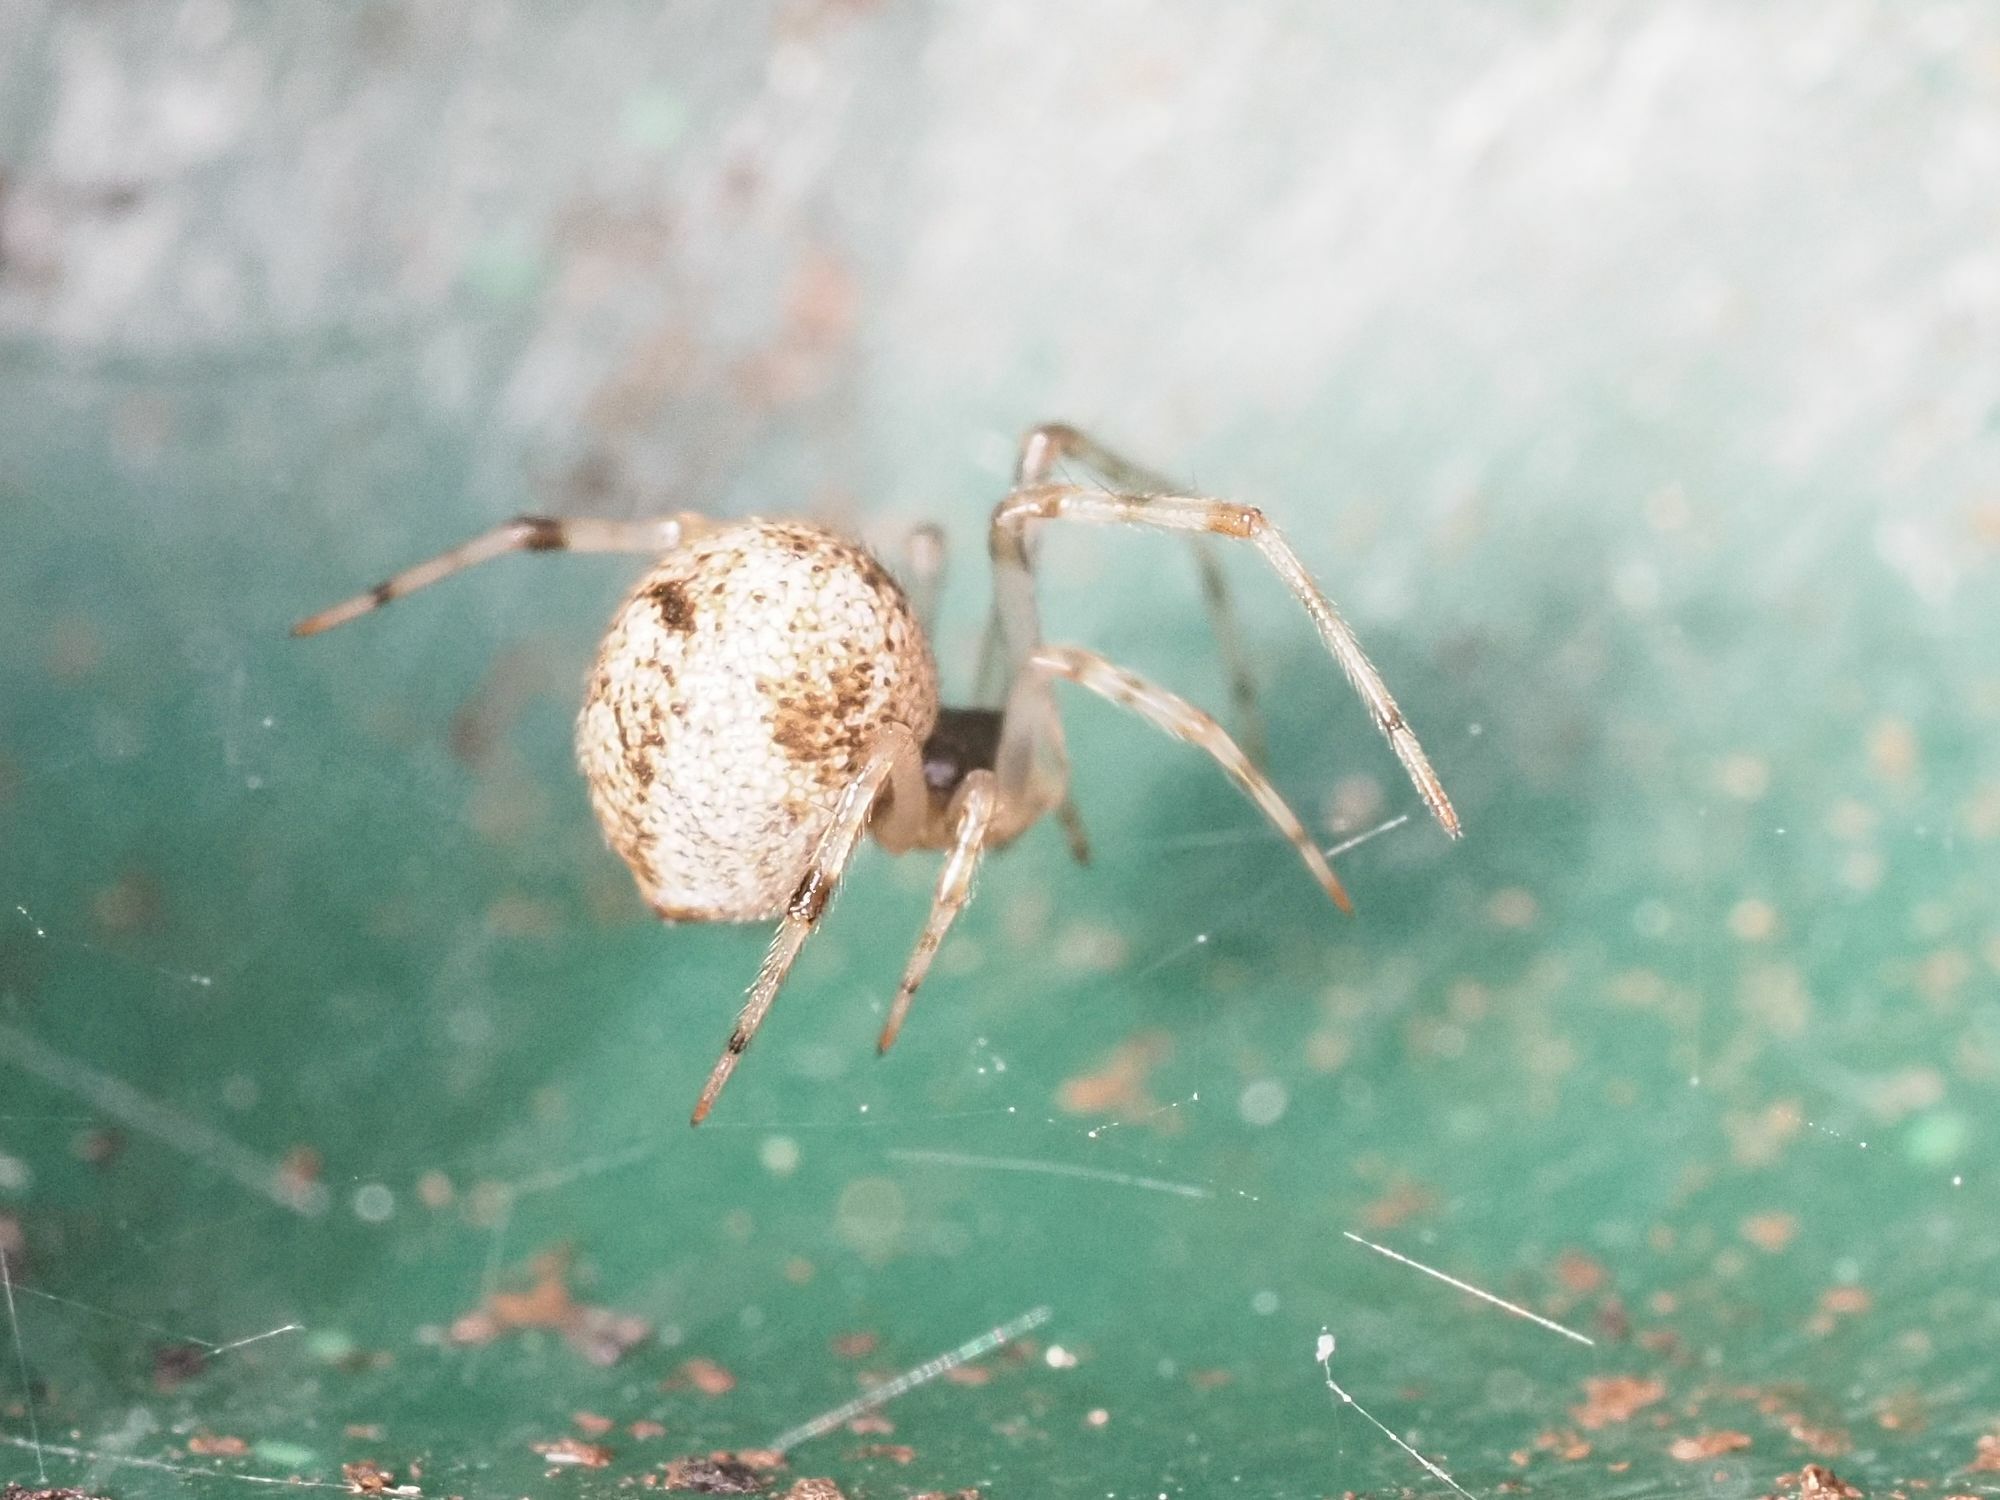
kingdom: Animalia
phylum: Arthropoda
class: Arachnida
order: Araneae
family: Theridiidae
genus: Parasteatoda
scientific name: Parasteatoda tepidariorum
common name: Common house spider
